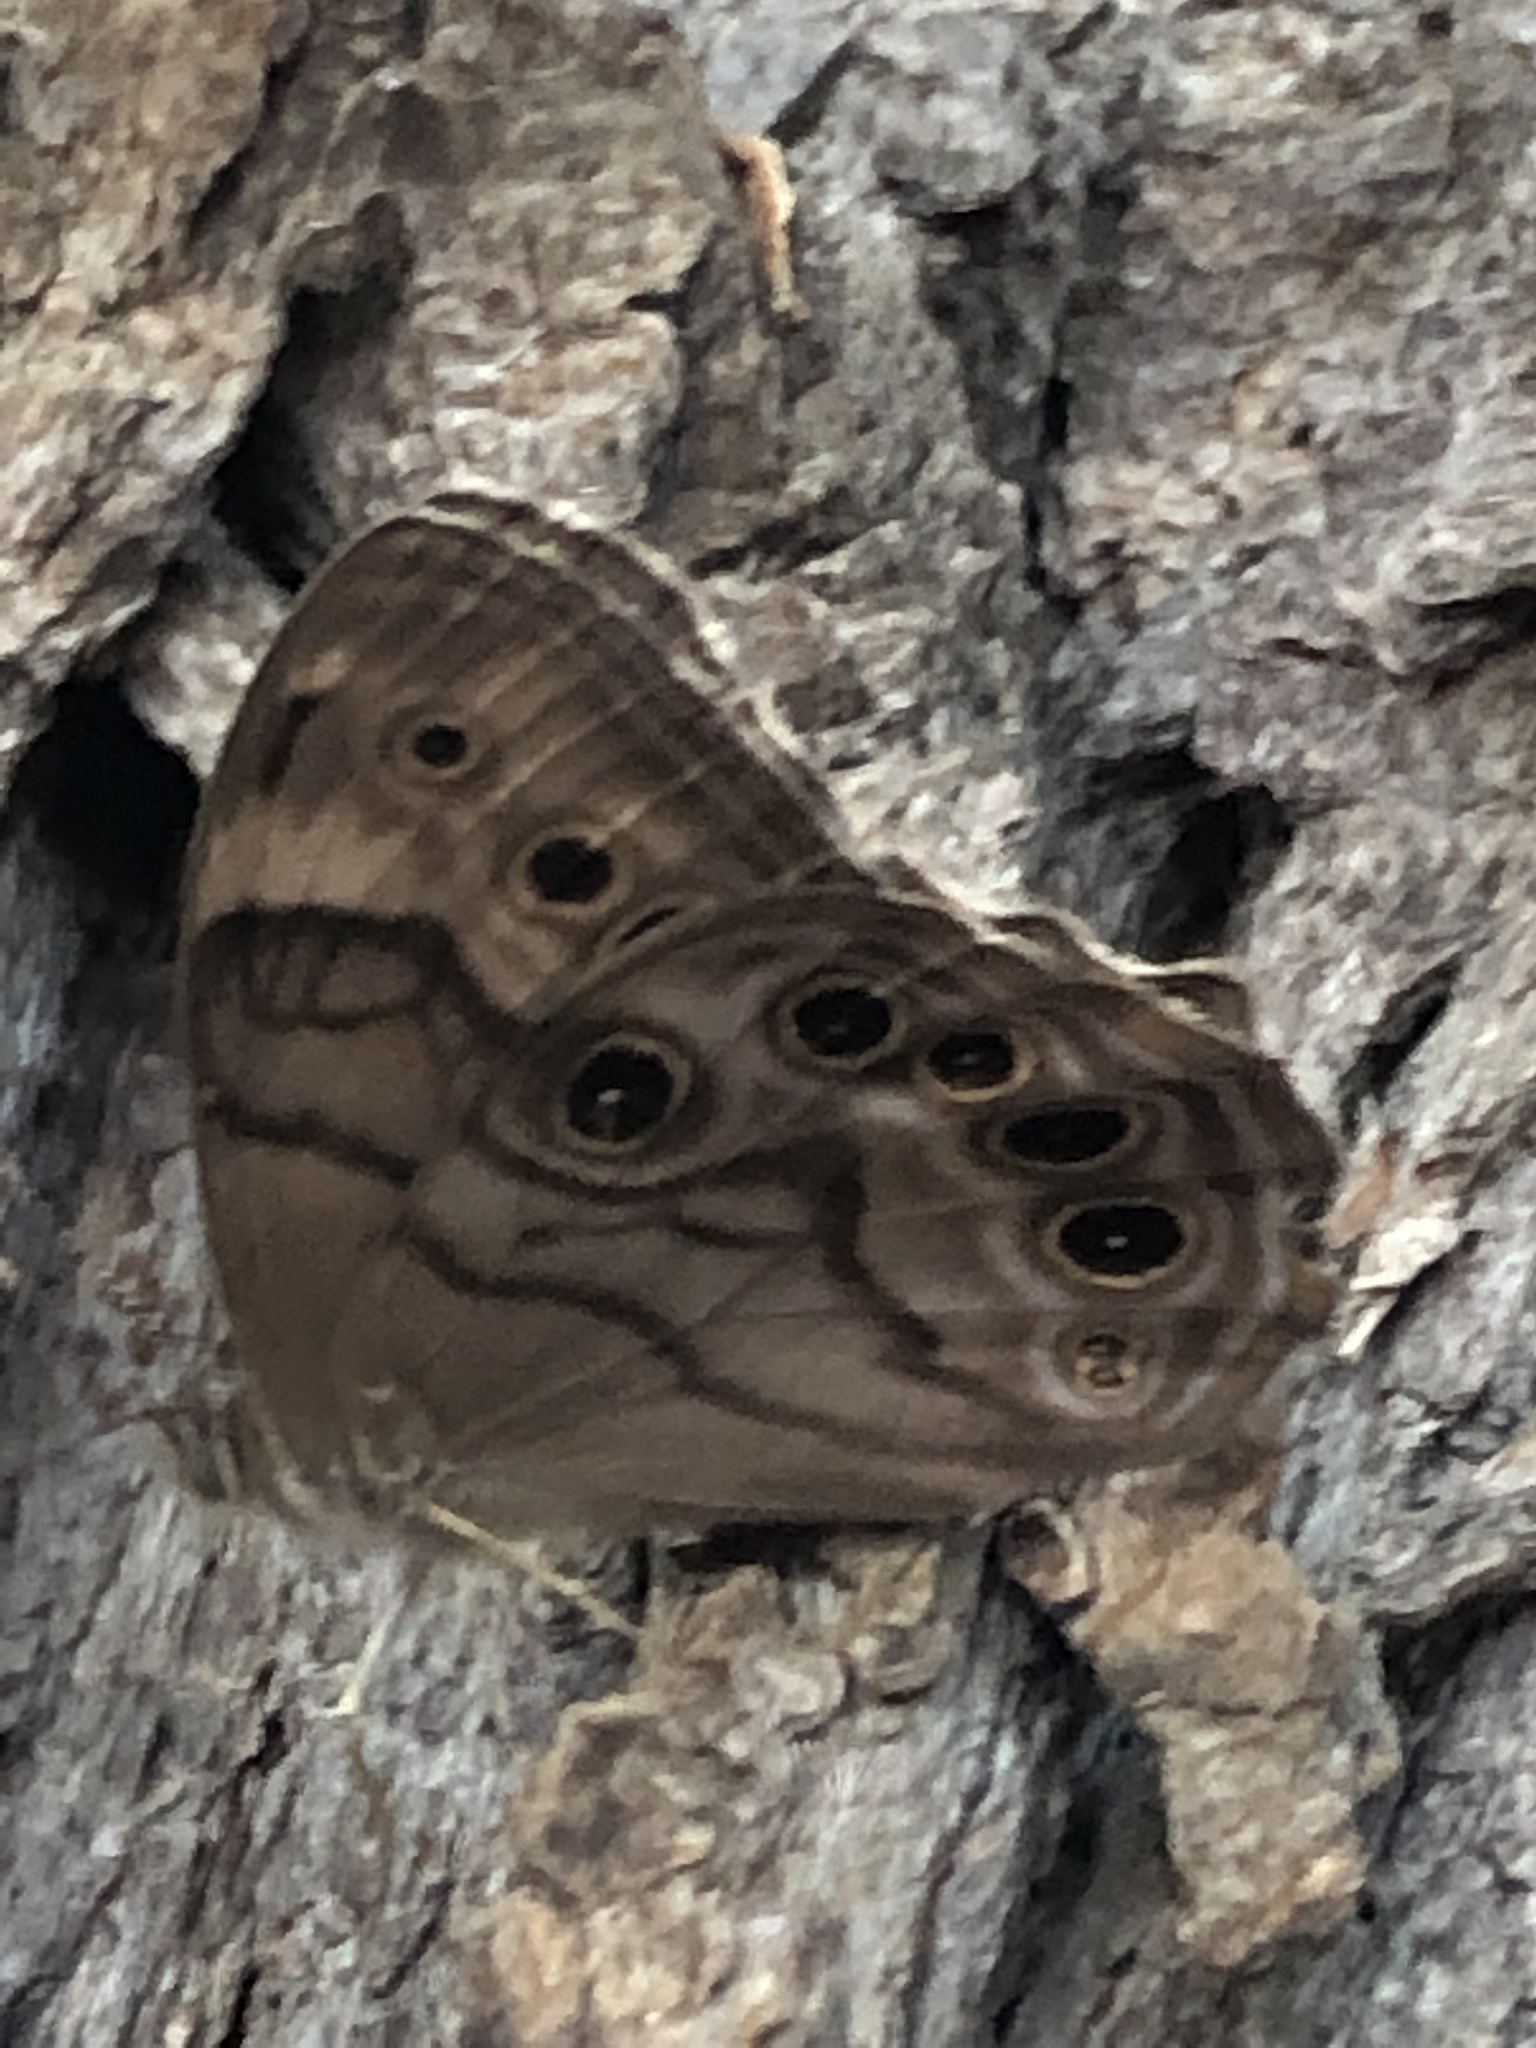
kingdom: Animalia
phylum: Arthropoda
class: Insecta
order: Lepidoptera
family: Nymphalidae
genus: Lethe
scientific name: Lethe anthedon
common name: Northern pearly-eye
